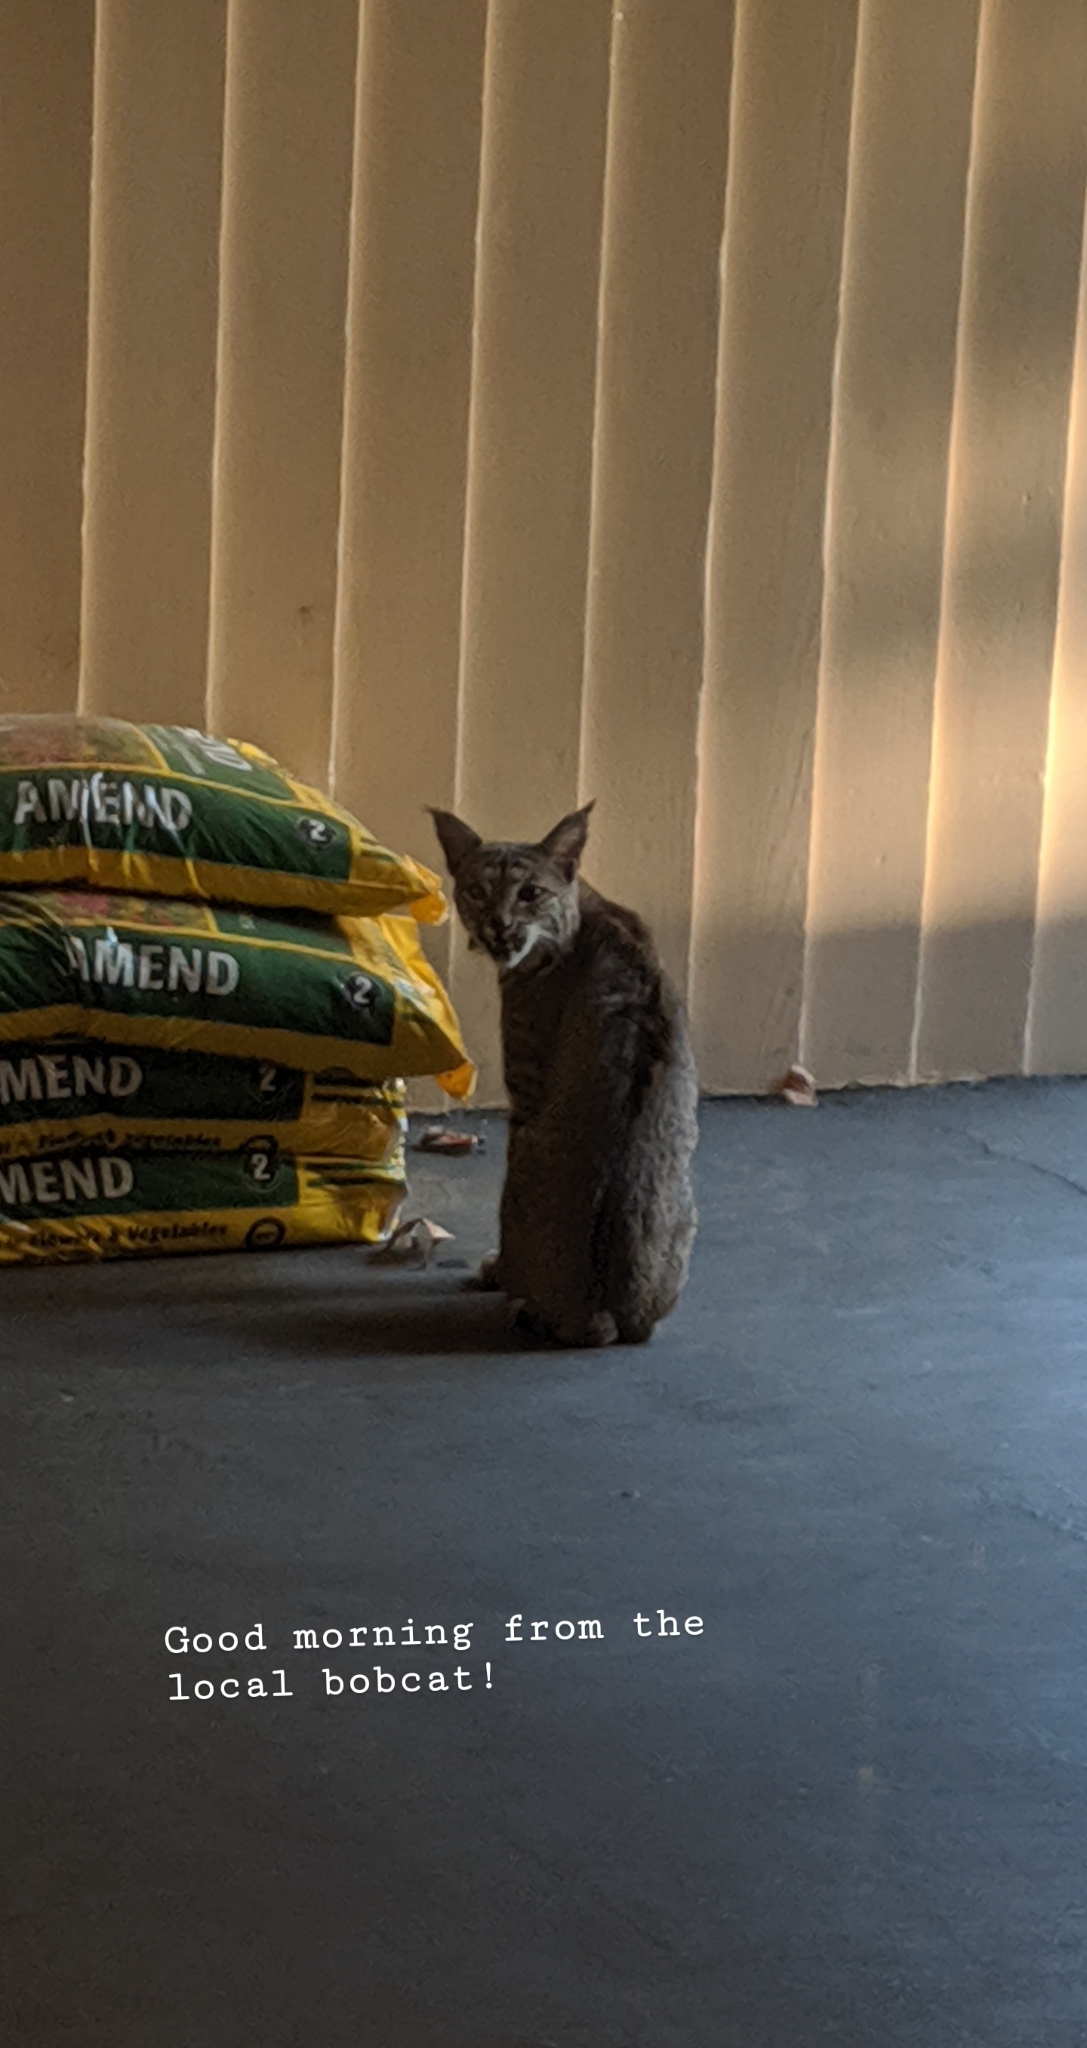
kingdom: Animalia
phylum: Chordata
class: Mammalia
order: Carnivora
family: Felidae
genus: Lynx
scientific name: Lynx rufus
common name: Bobcat
